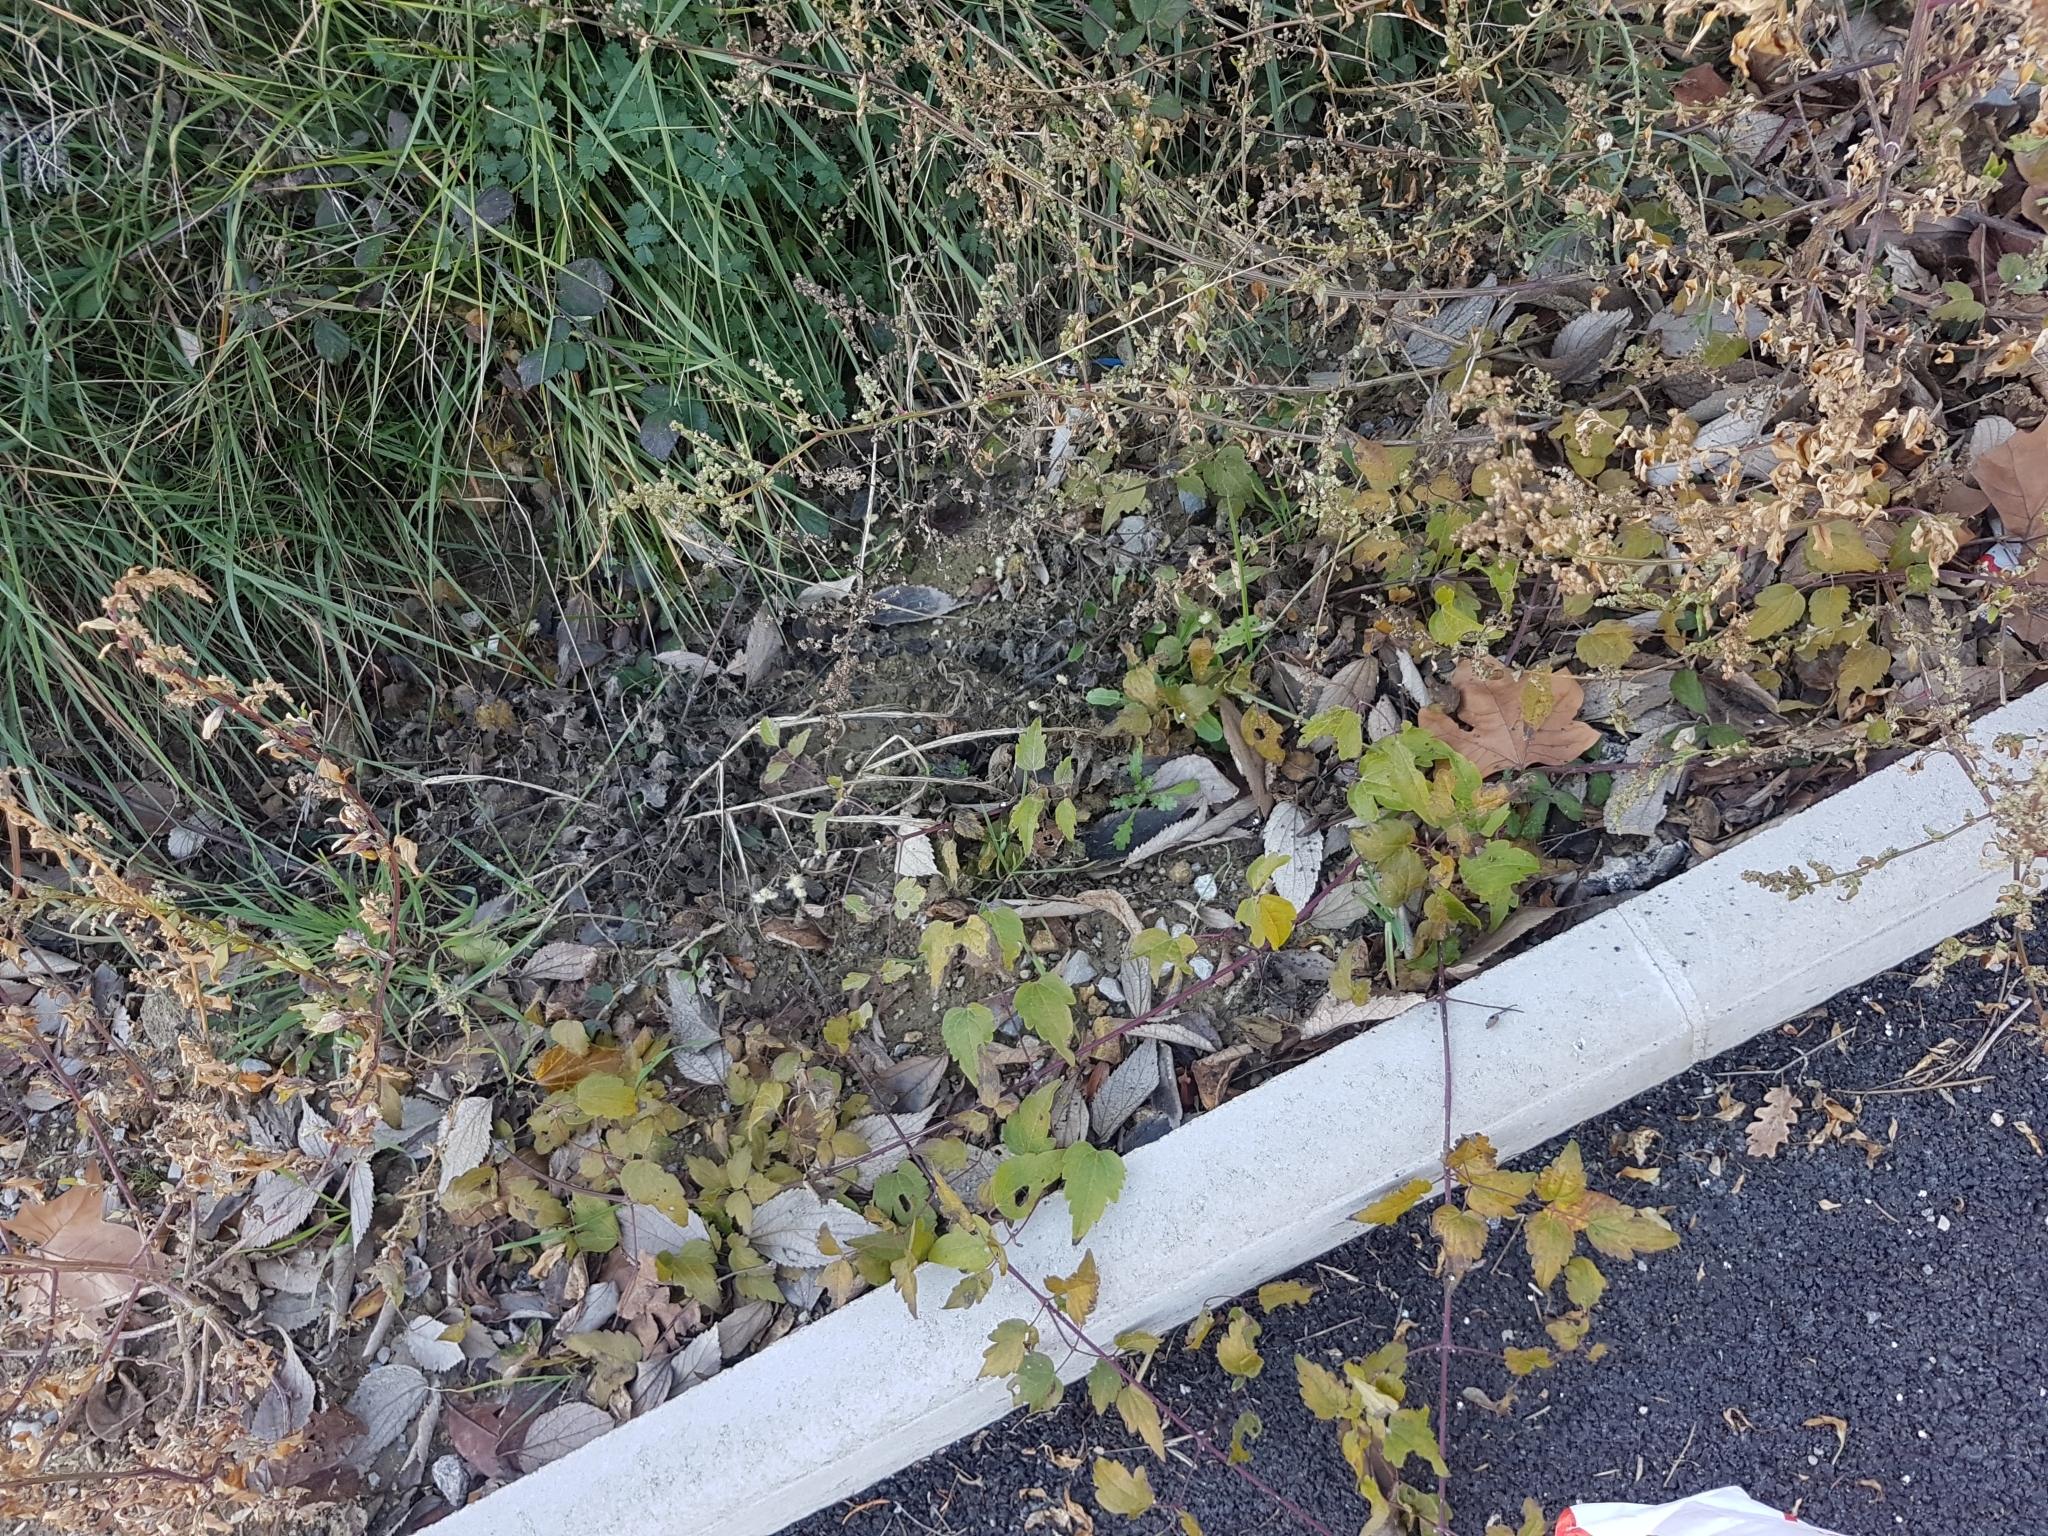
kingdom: Plantae
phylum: Tracheophyta
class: Magnoliopsida
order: Ranunculales
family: Ranunculaceae
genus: Clematis
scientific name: Clematis vitalba
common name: Evergreen clematis
